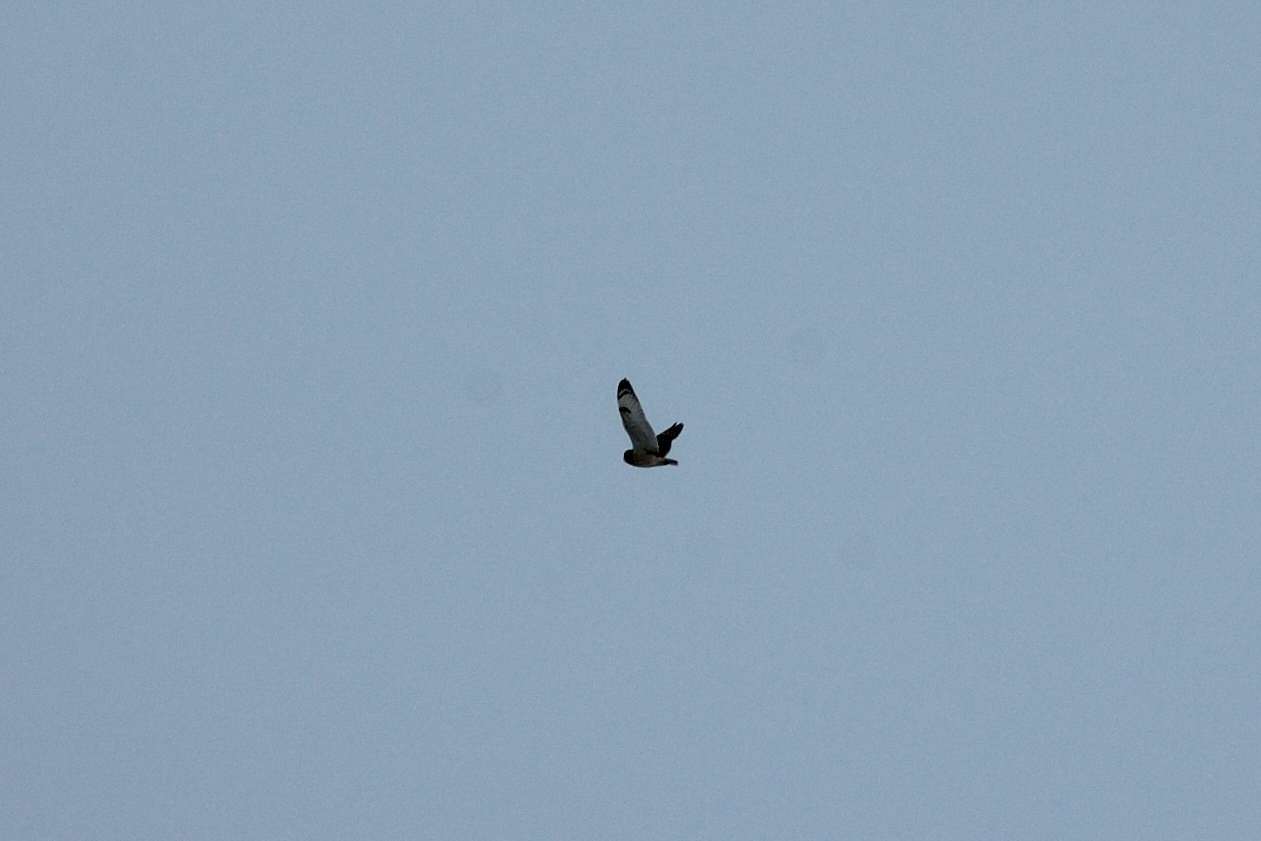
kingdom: Animalia
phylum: Chordata
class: Aves
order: Strigiformes
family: Strigidae
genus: Asio
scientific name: Asio flammeus
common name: Short-eared owl
